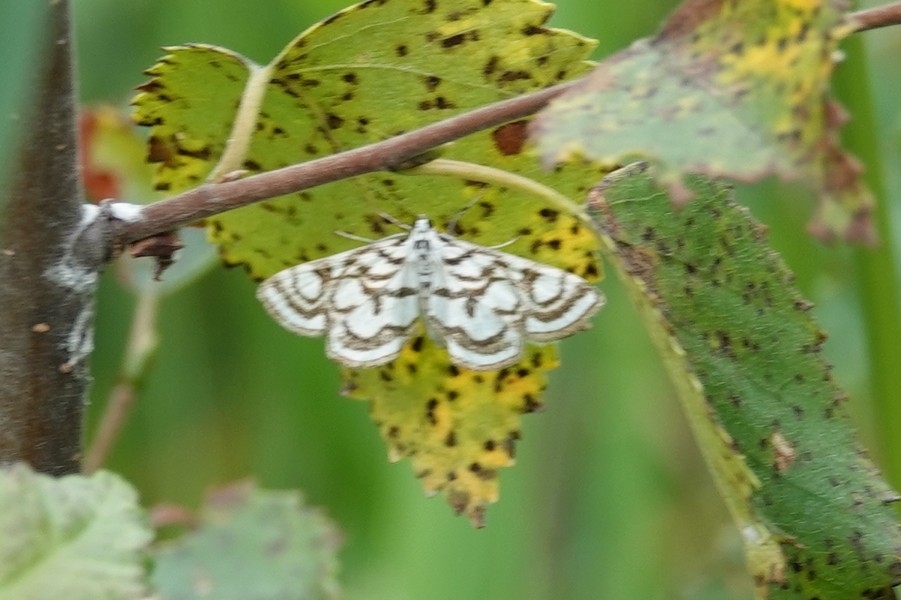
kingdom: Animalia
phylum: Arthropoda
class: Insecta
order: Lepidoptera
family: Crambidae
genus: Nymphula
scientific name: Nymphula nitidulata
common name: Beautiful china mark
